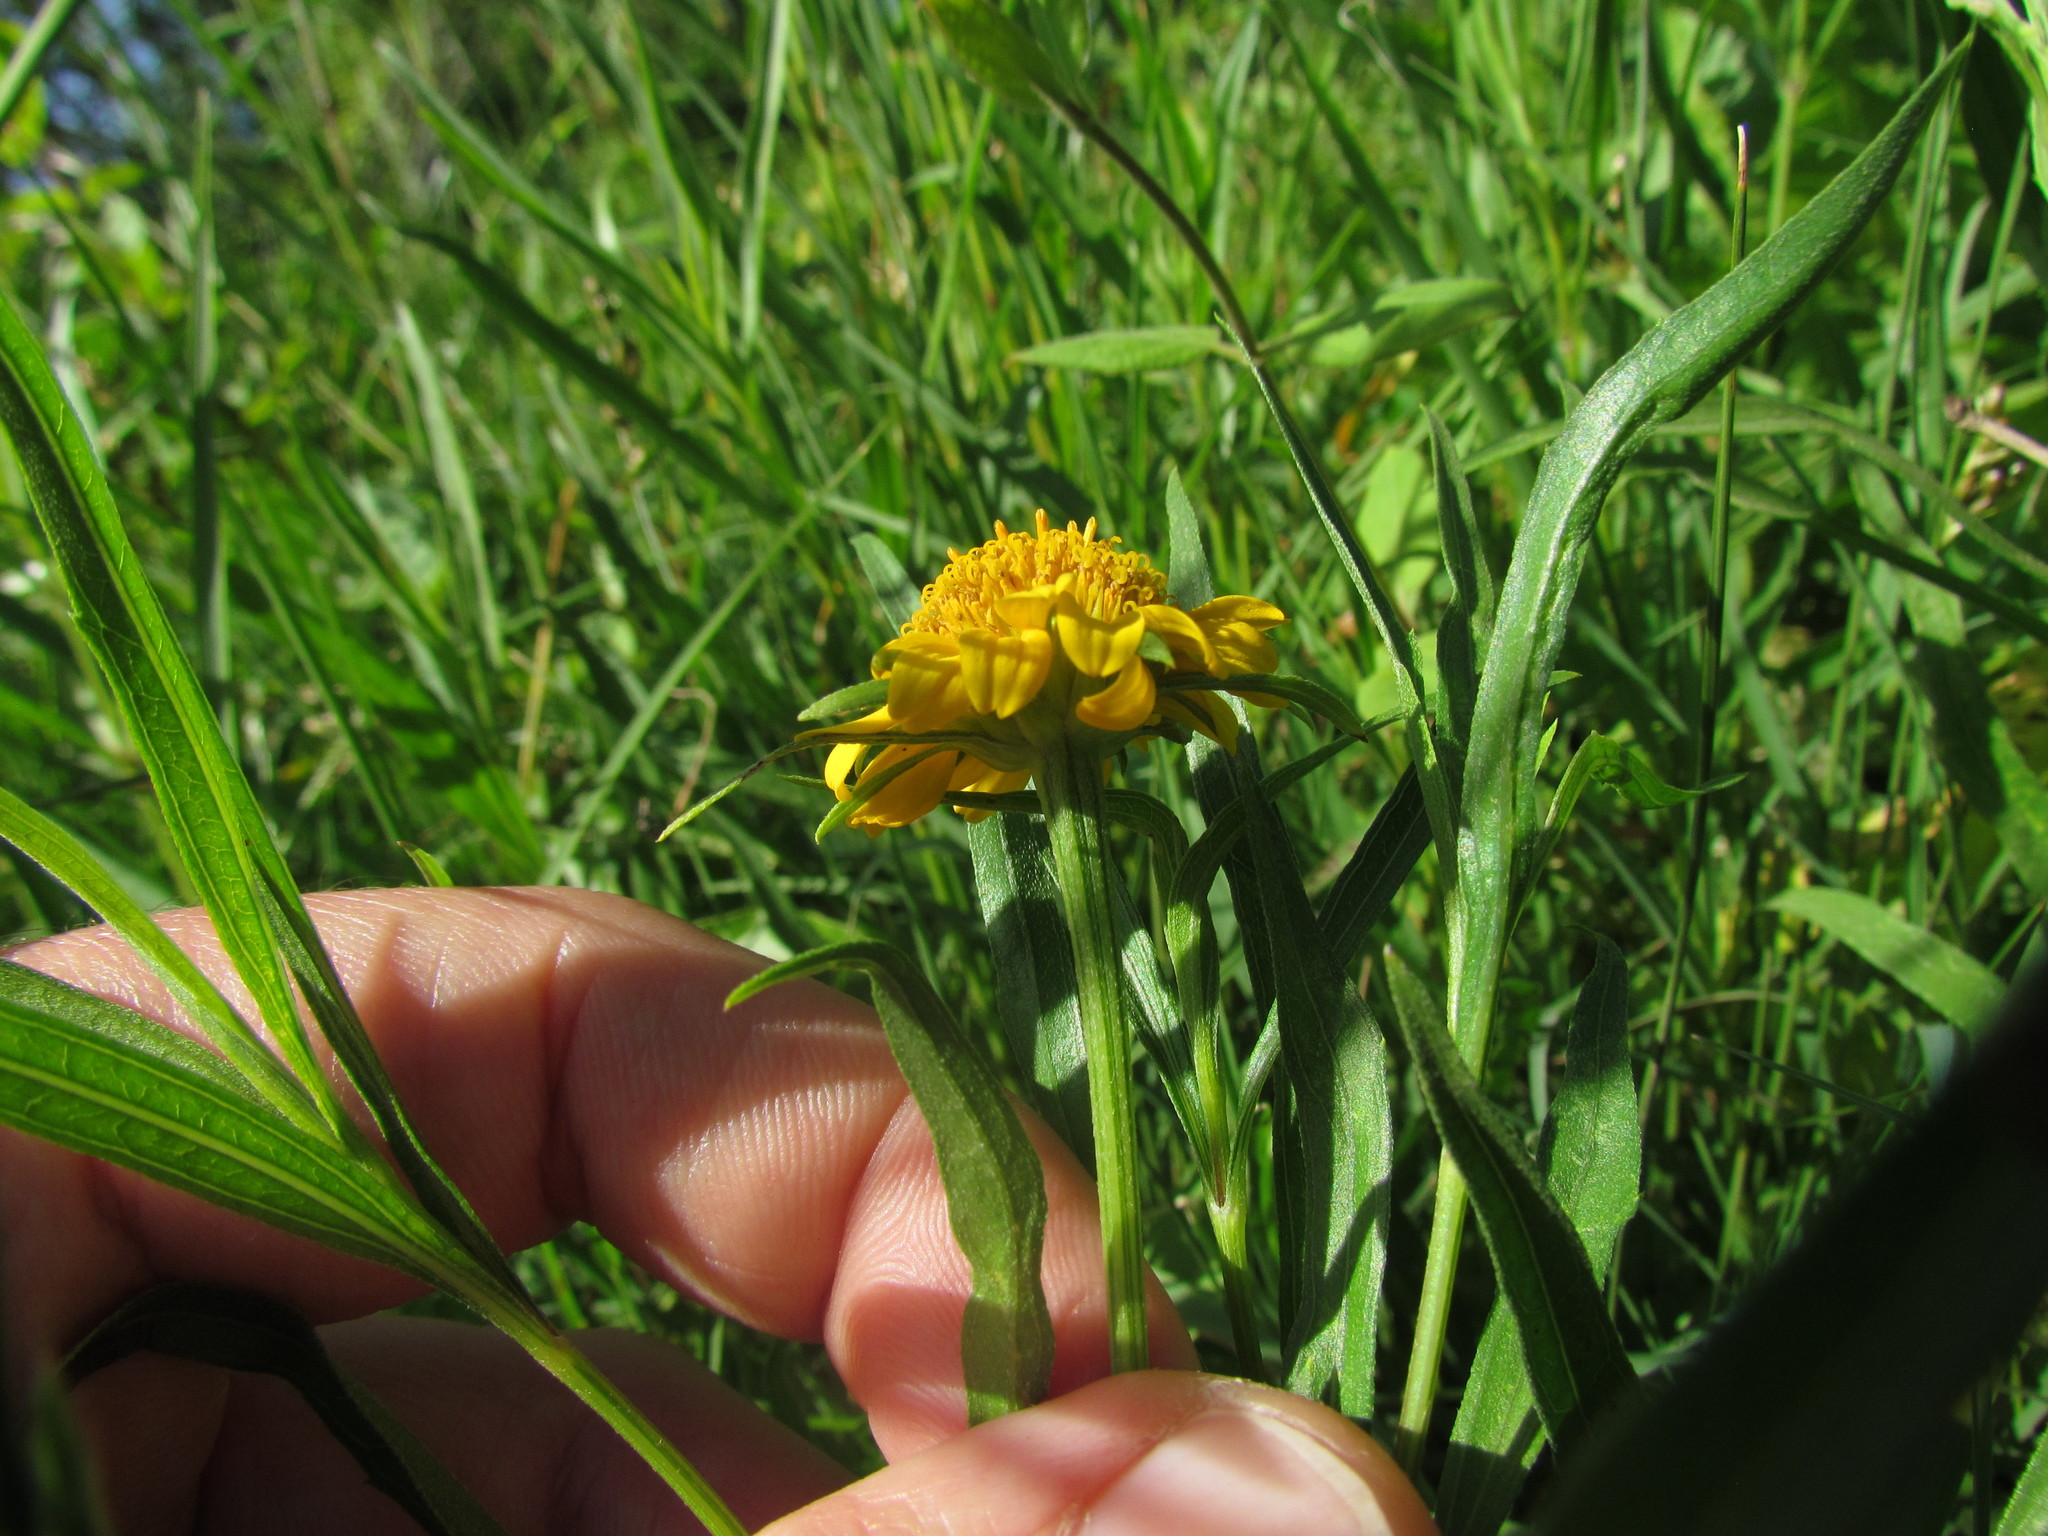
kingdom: Plantae
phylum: Tracheophyta
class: Magnoliopsida
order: Asterales
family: Asteraceae
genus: Pascalia
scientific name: Pascalia glauca
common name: Beach creeping oxeye
